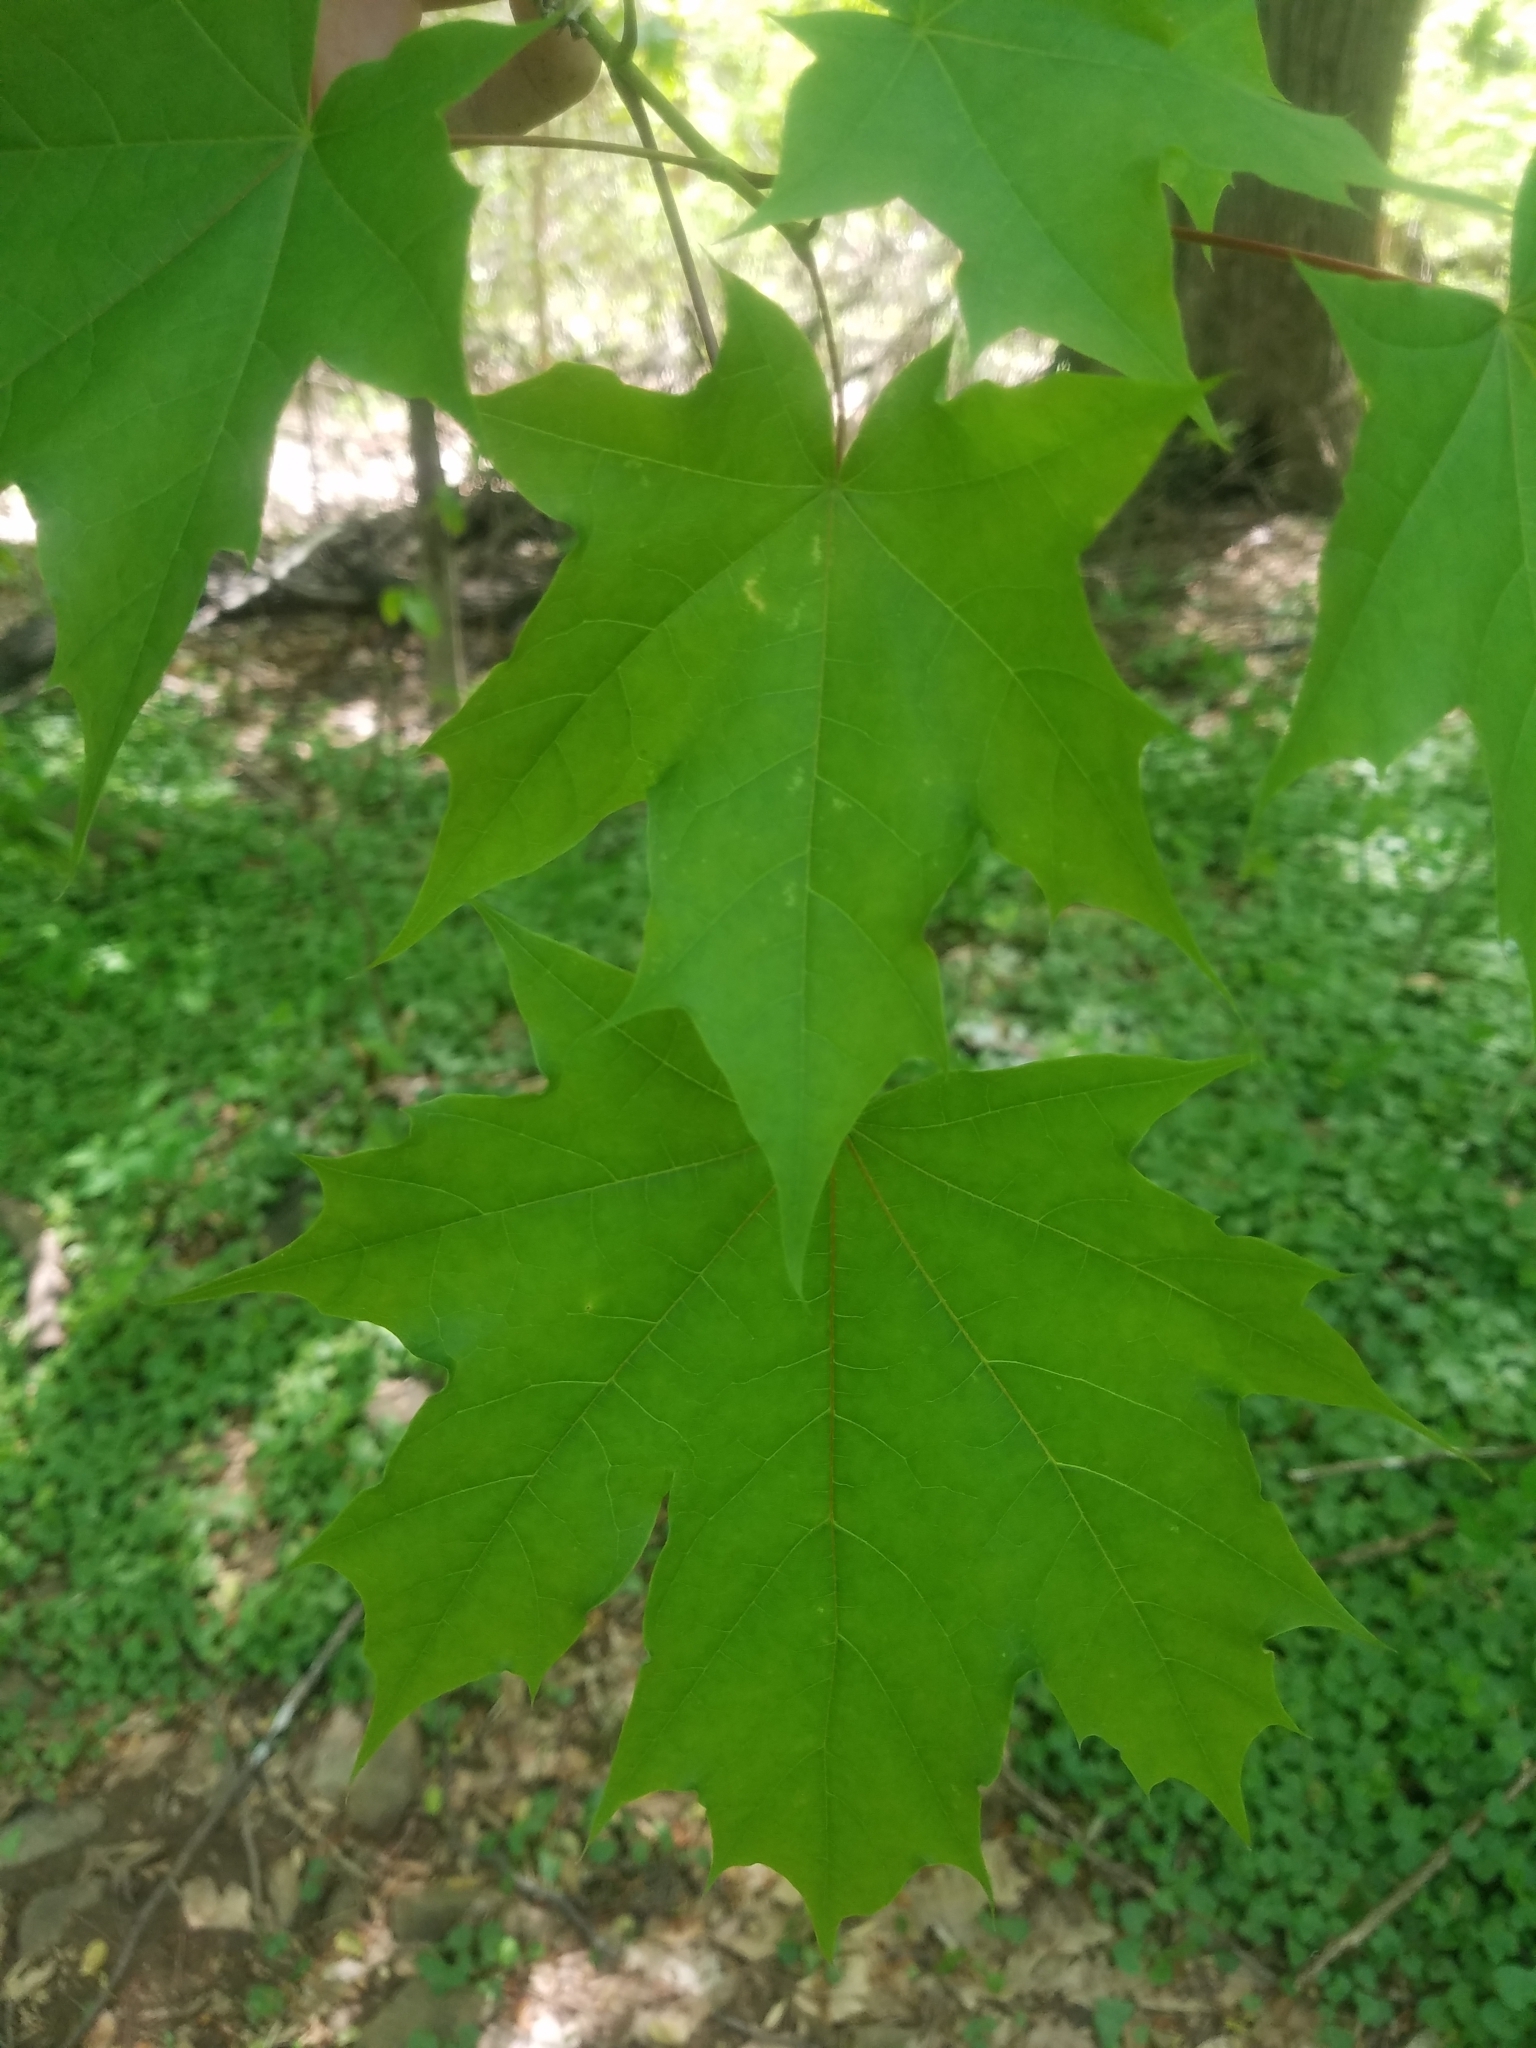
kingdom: Plantae
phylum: Tracheophyta
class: Magnoliopsida
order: Sapindales
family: Sapindaceae
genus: Acer
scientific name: Acer platanoides
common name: Norway maple
